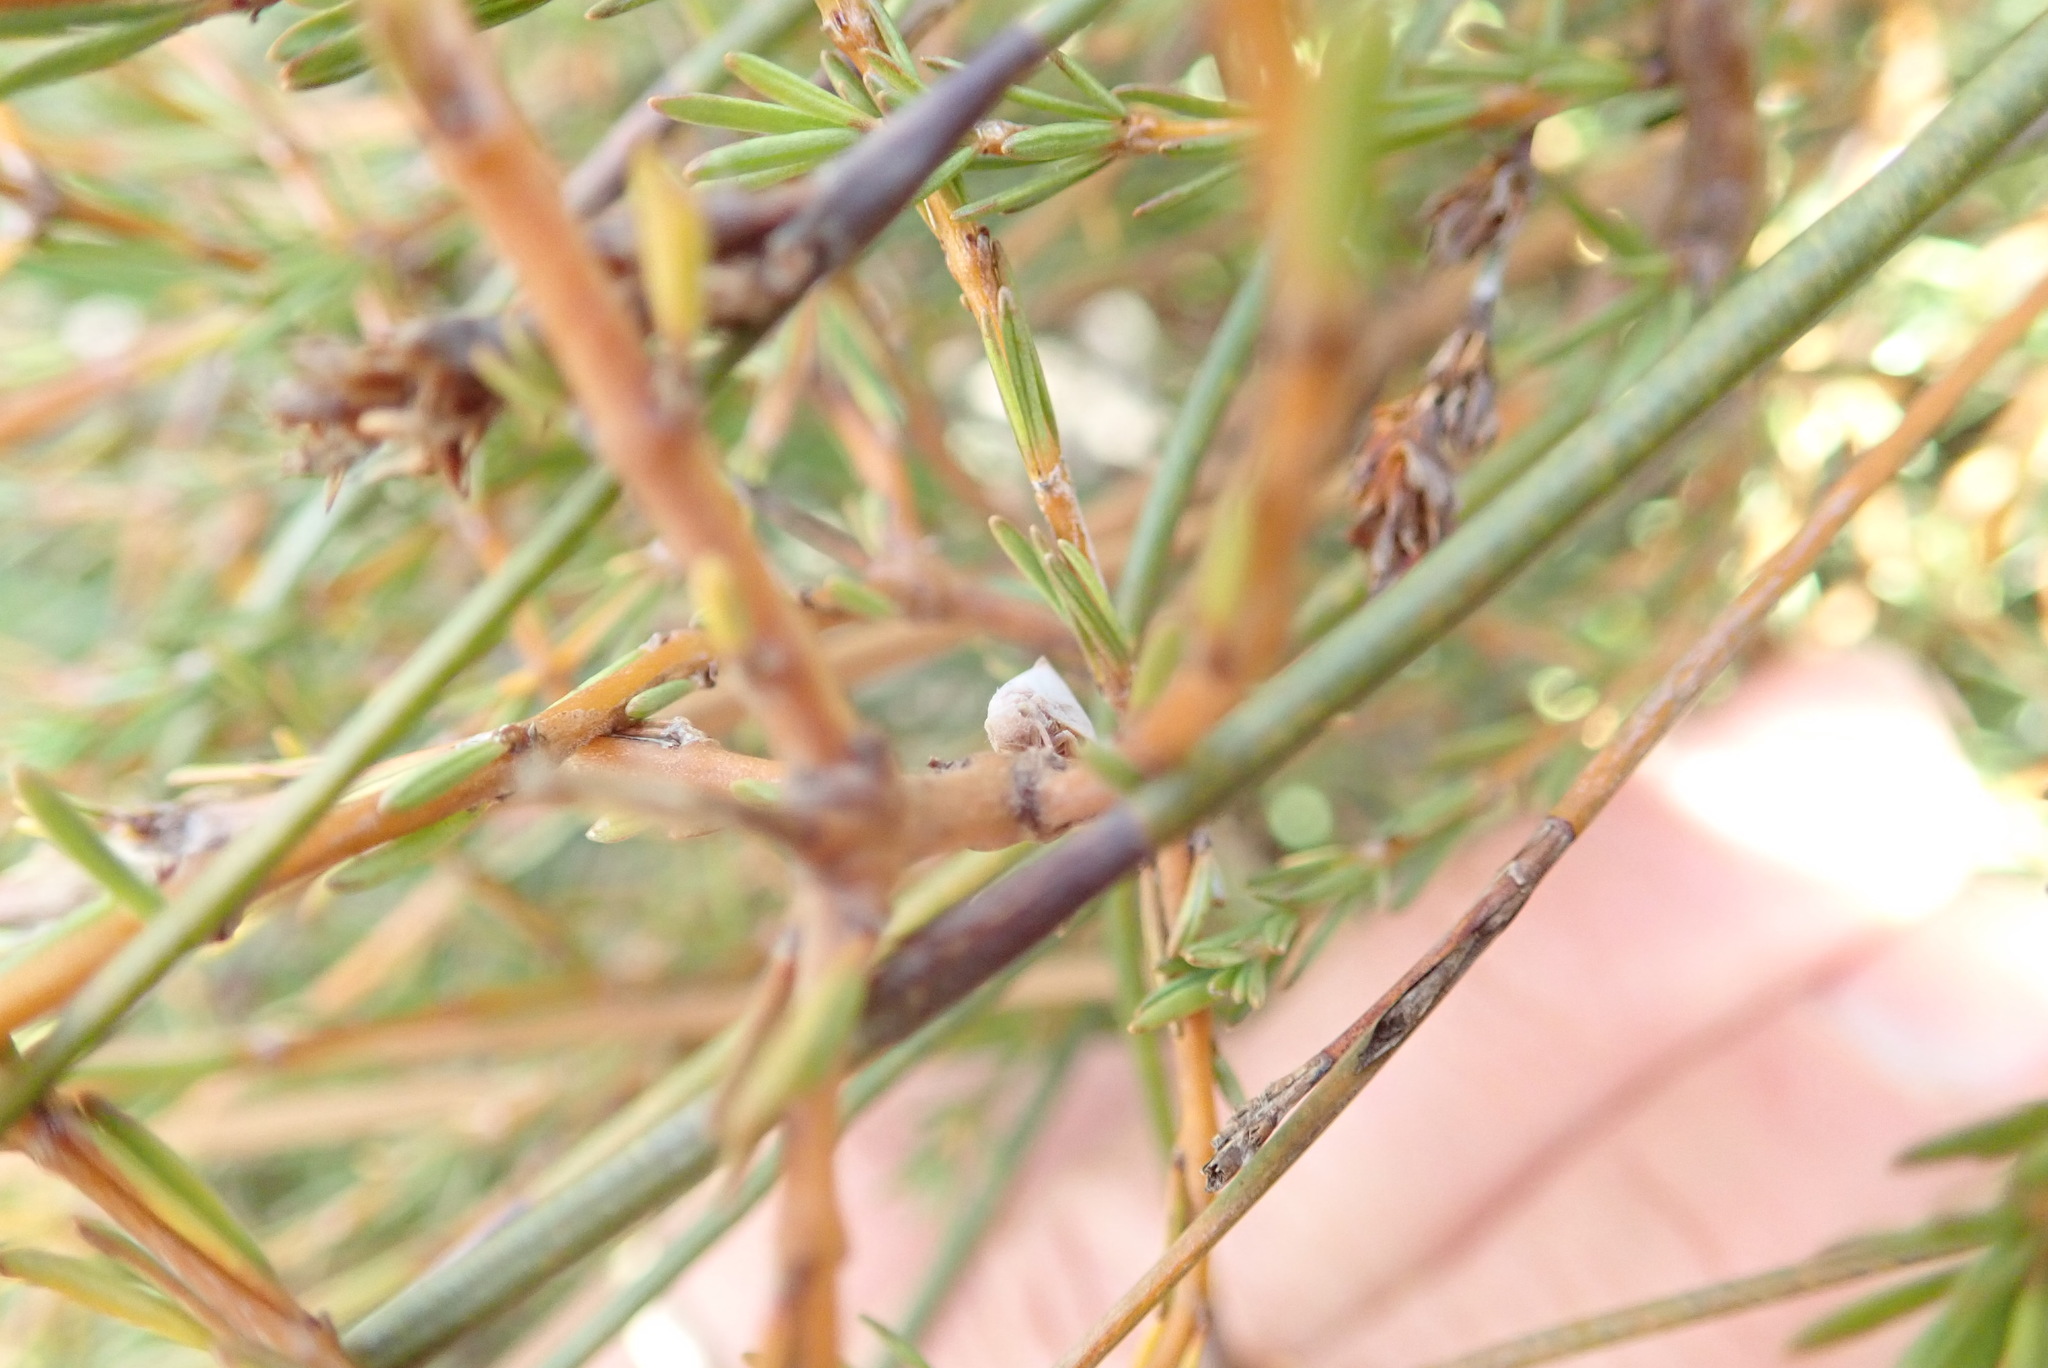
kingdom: Animalia
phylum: Arthropoda
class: Insecta
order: Hemiptera
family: Flatidae
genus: Anzora
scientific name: Anzora unicolor
